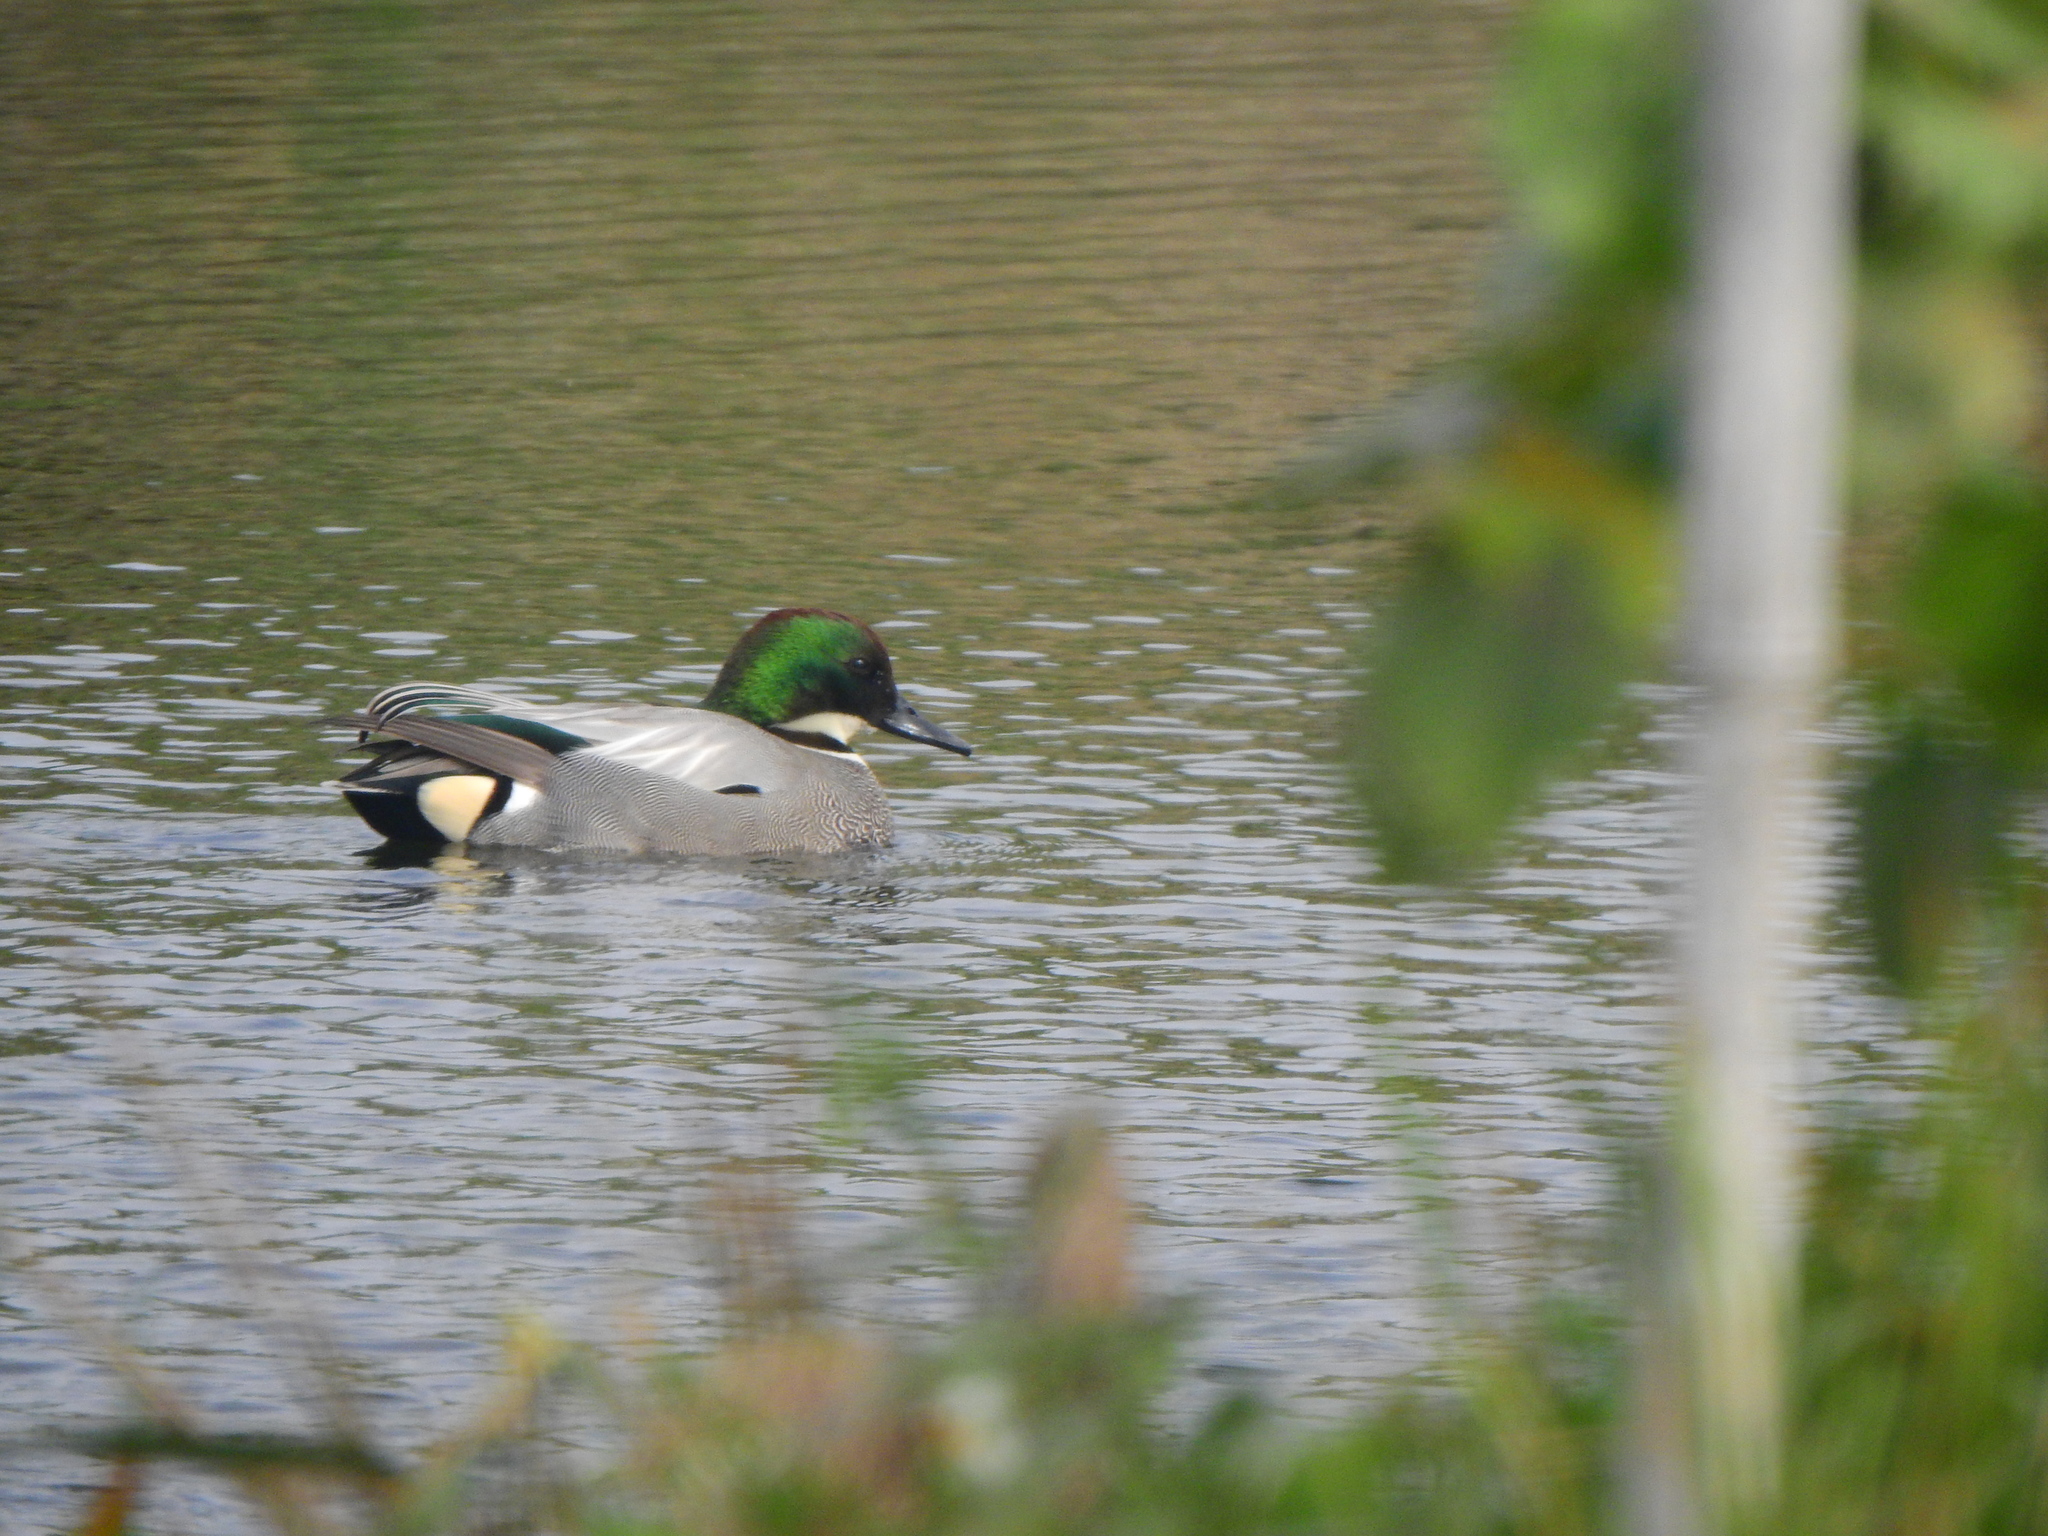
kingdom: Animalia
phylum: Chordata
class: Aves
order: Anseriformes
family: Anatidae
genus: Mareca
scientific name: Mareca falcata
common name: Falcated duck
